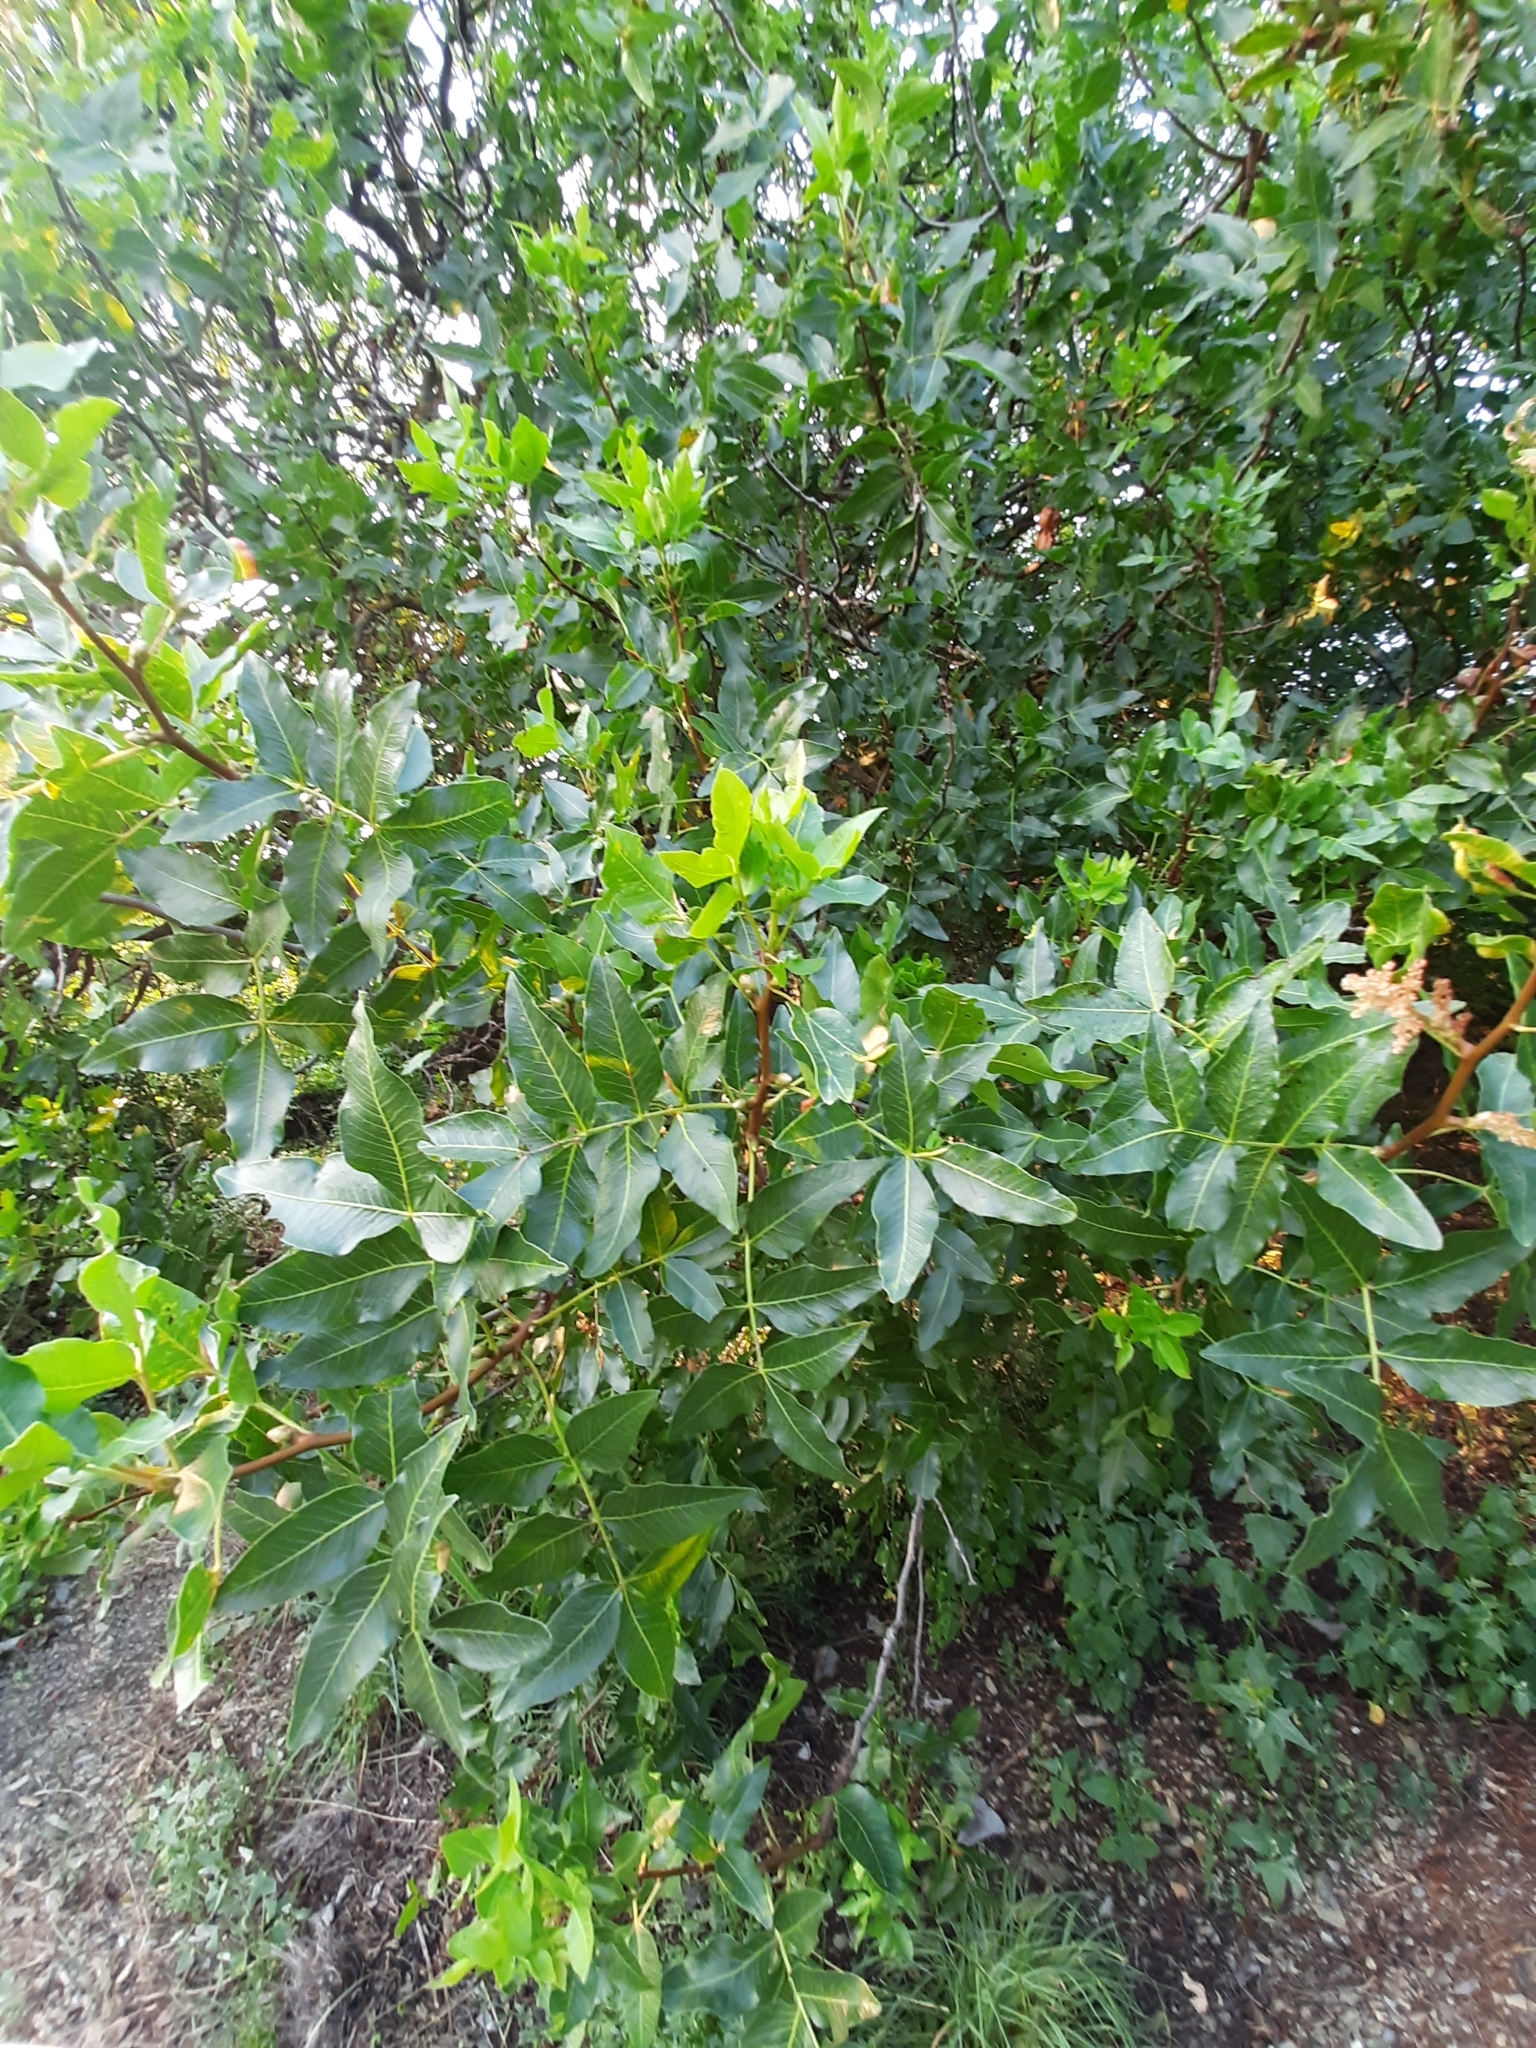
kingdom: Plantae
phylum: Tracheophyta
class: Magnoliopsida
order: Sapindales
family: Anacardiaceae
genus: Pistacia
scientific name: Pistacia atlantica
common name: Mt. atlas mastic tree
